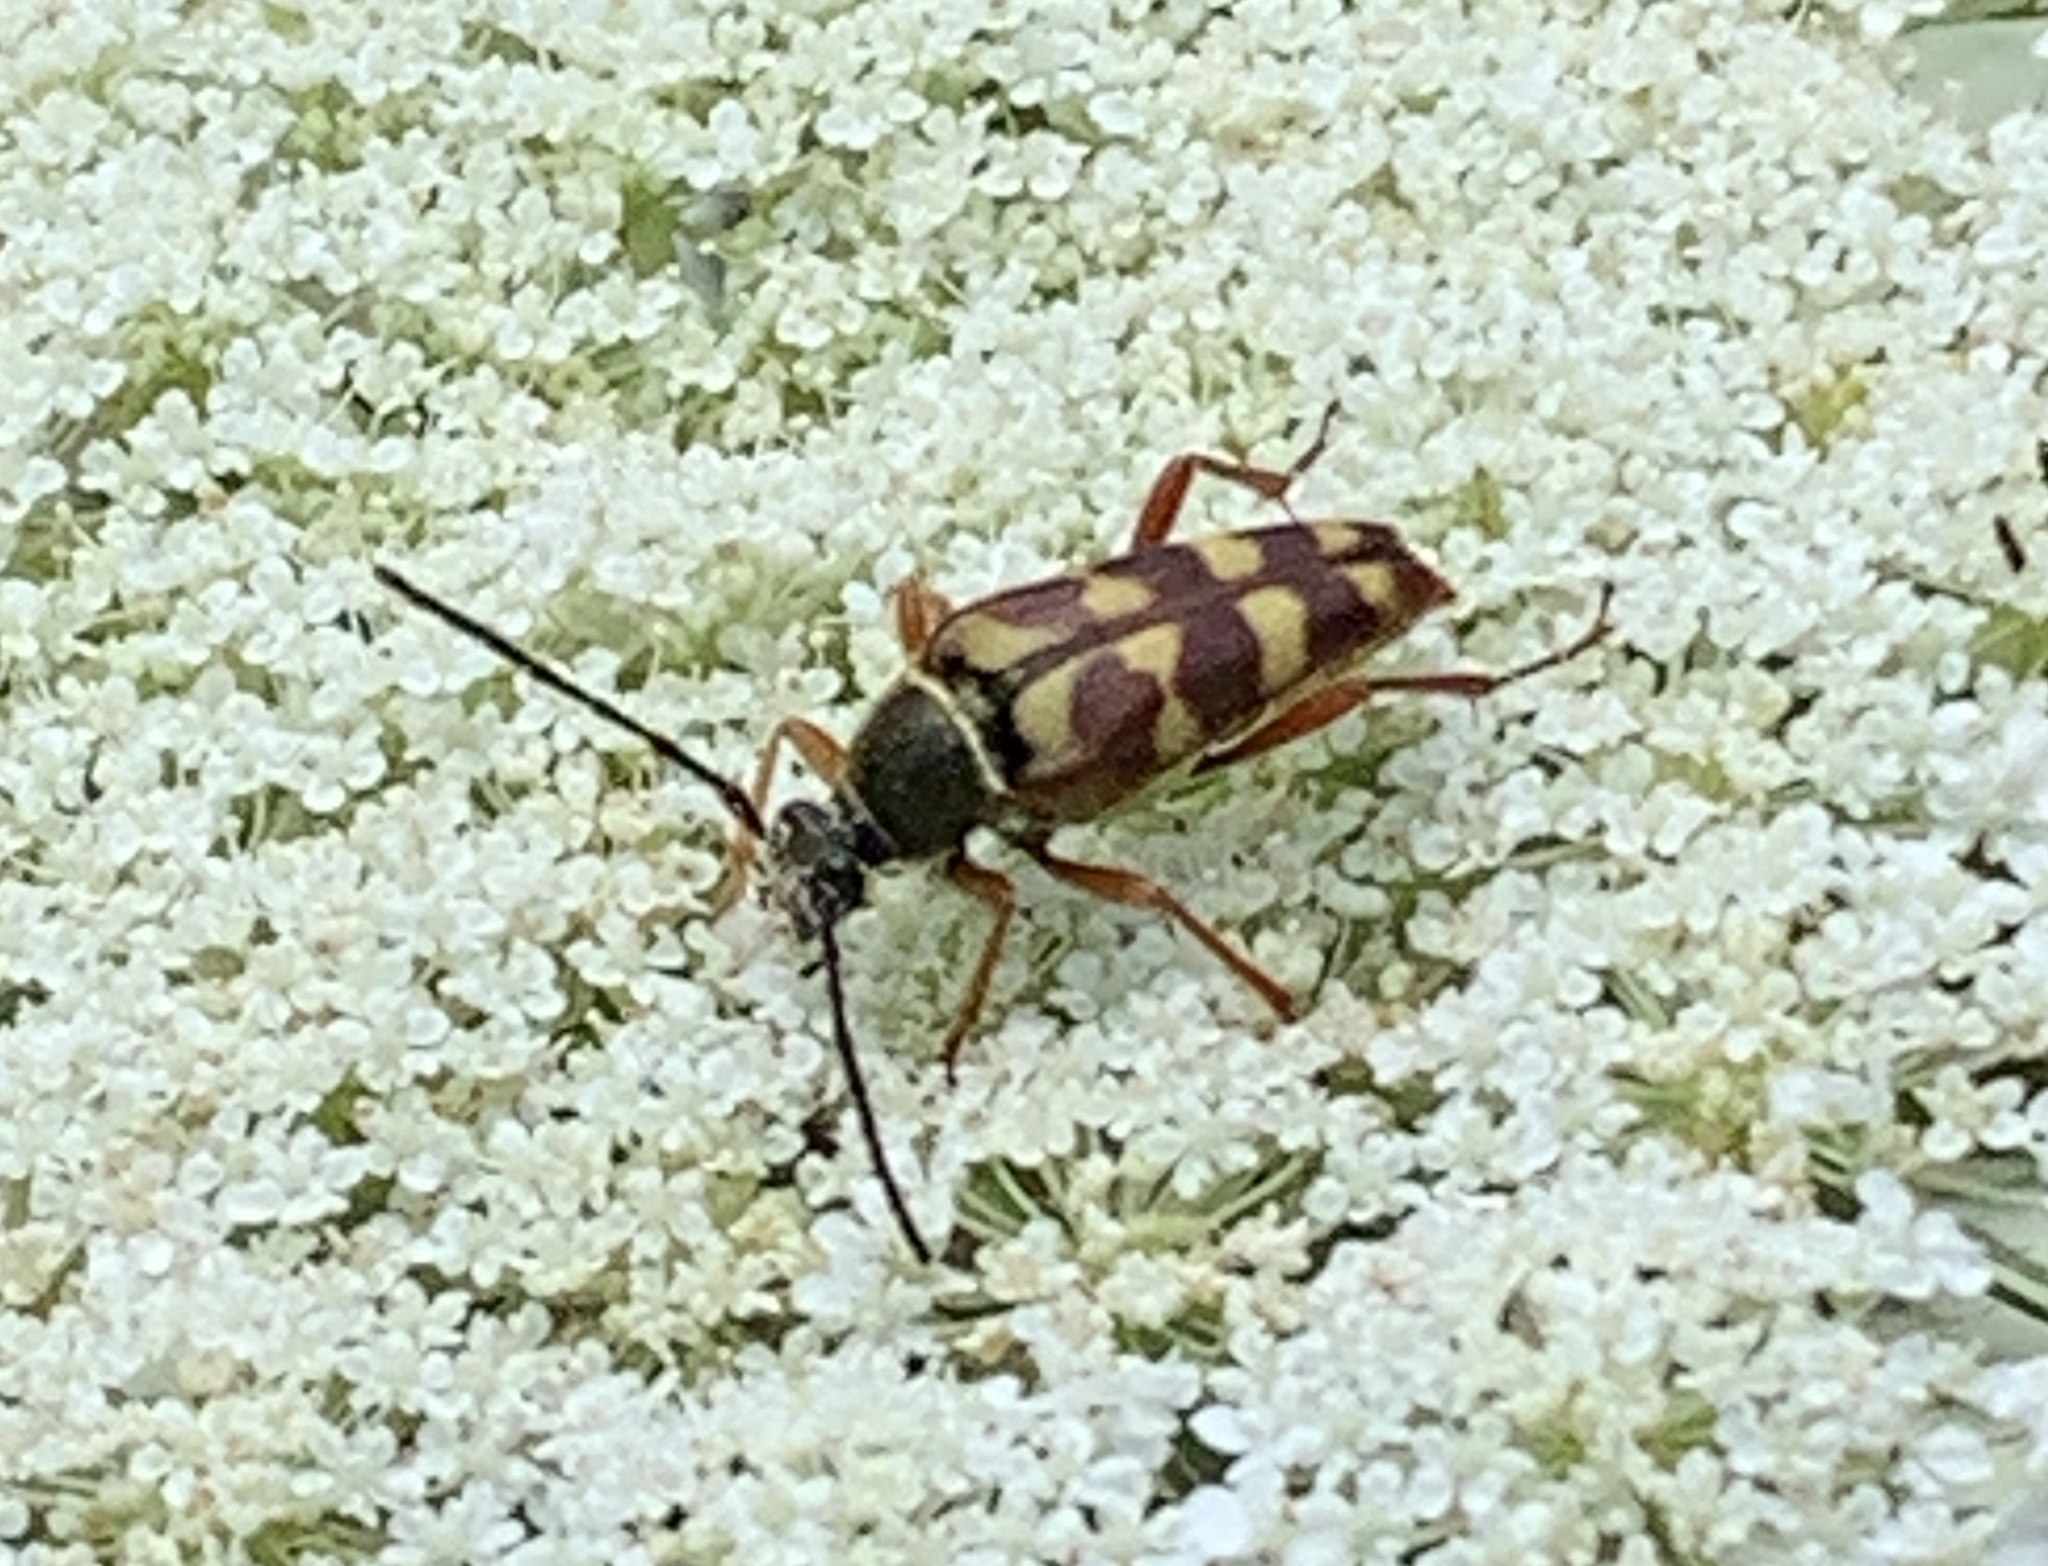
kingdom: Animalia
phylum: Arthropoda
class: Insecta
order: Coleoptera
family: Cerambycidae
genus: Typocerus
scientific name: Typocerus velutinus
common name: Banded longhorn beetle
